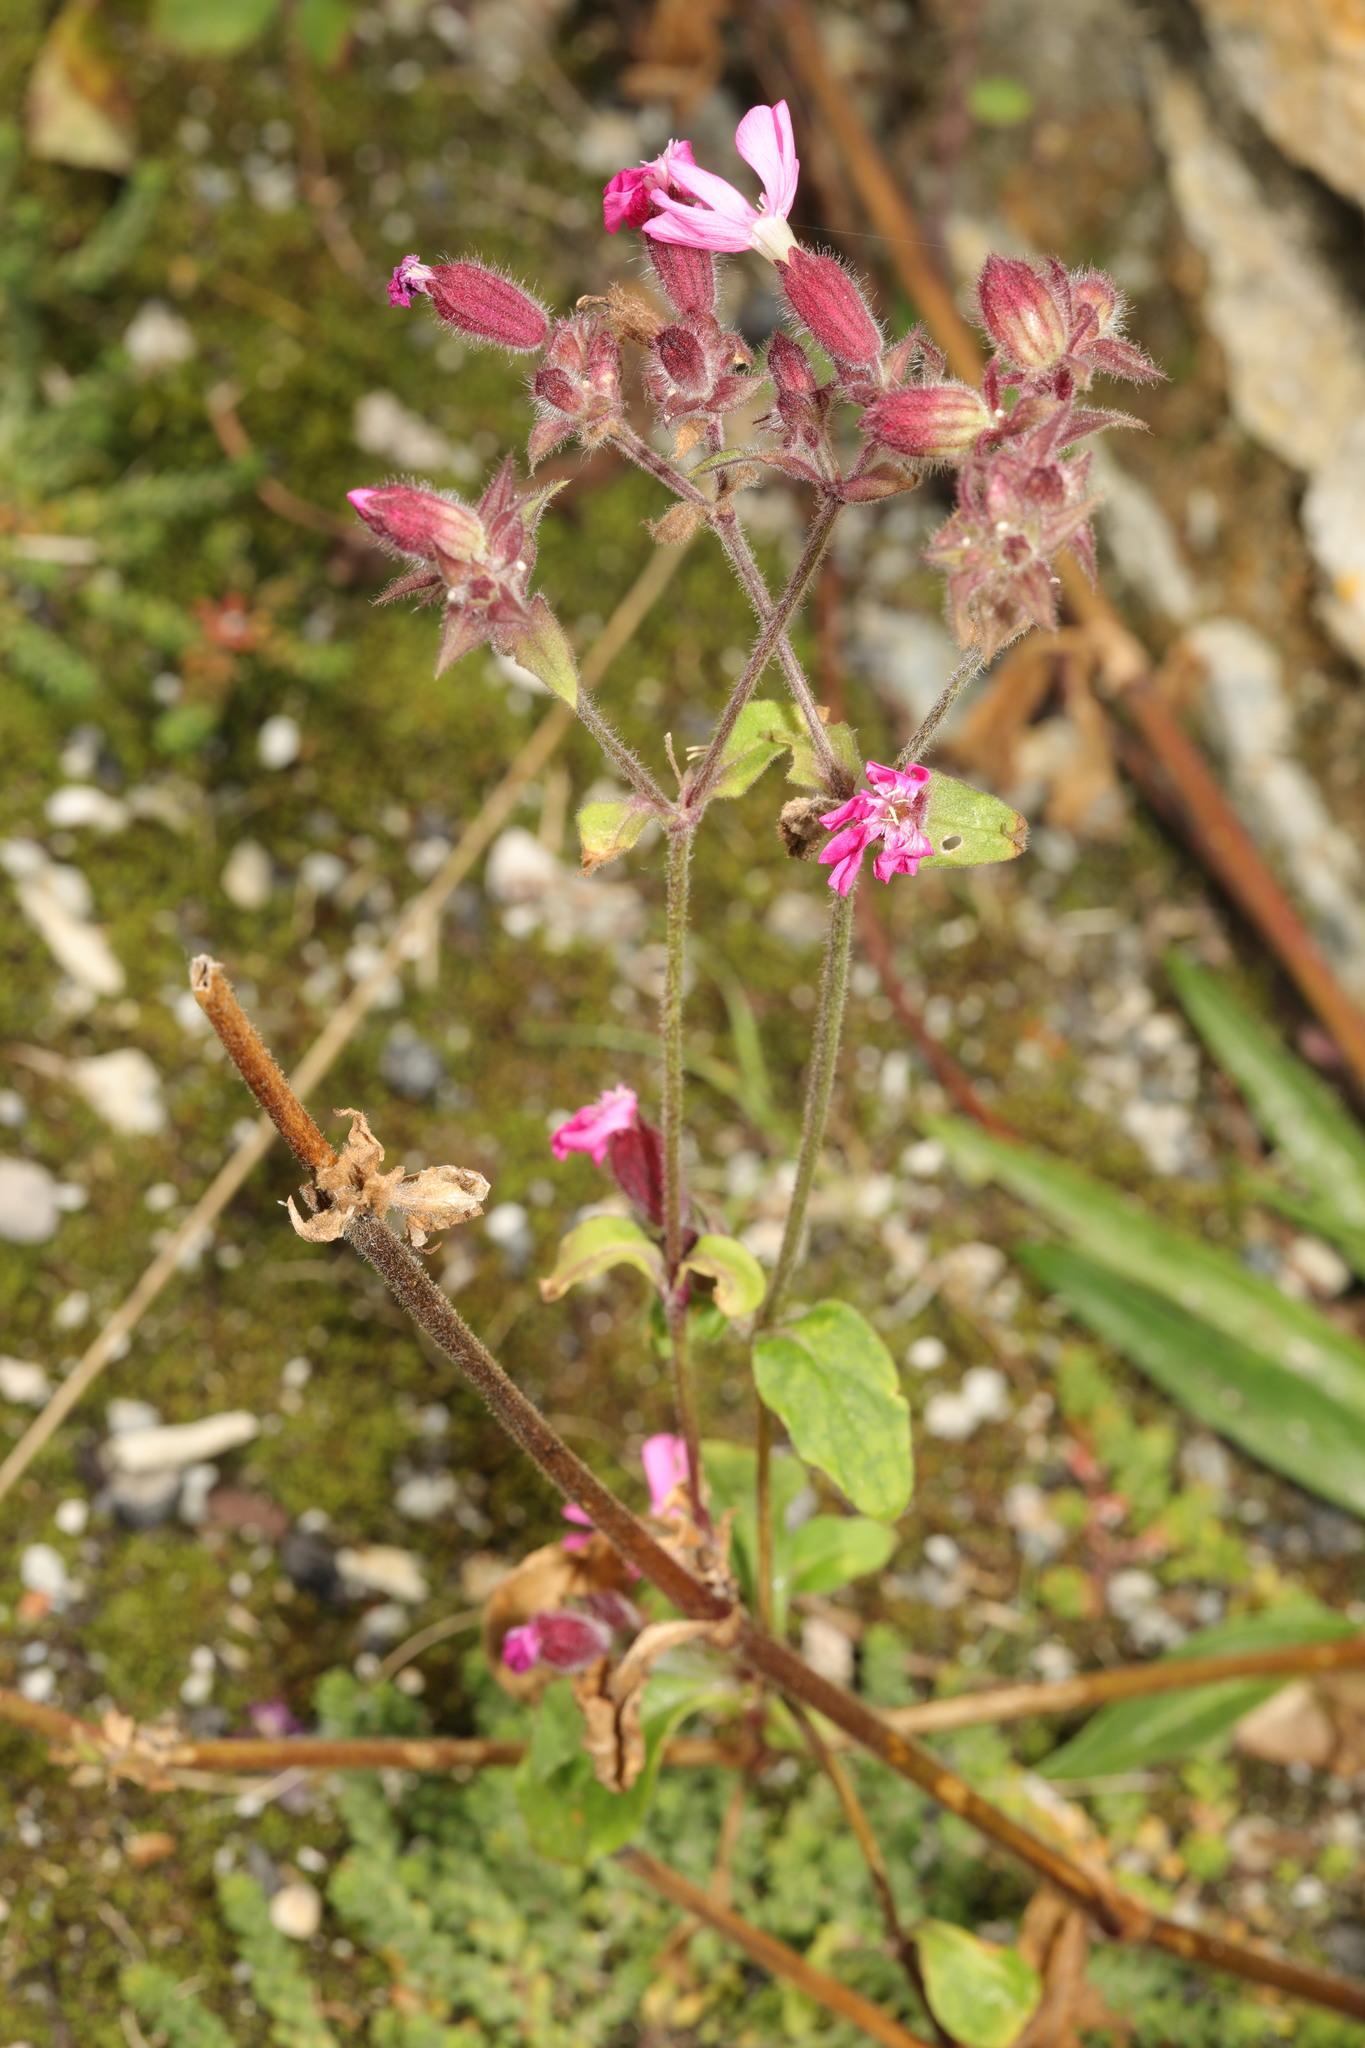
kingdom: Plantae
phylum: Tracheophyta
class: Magnoliopsida
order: Caryophyllales
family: Caryophyllaceae
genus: Silene
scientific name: Silene dioica
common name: Red campion
